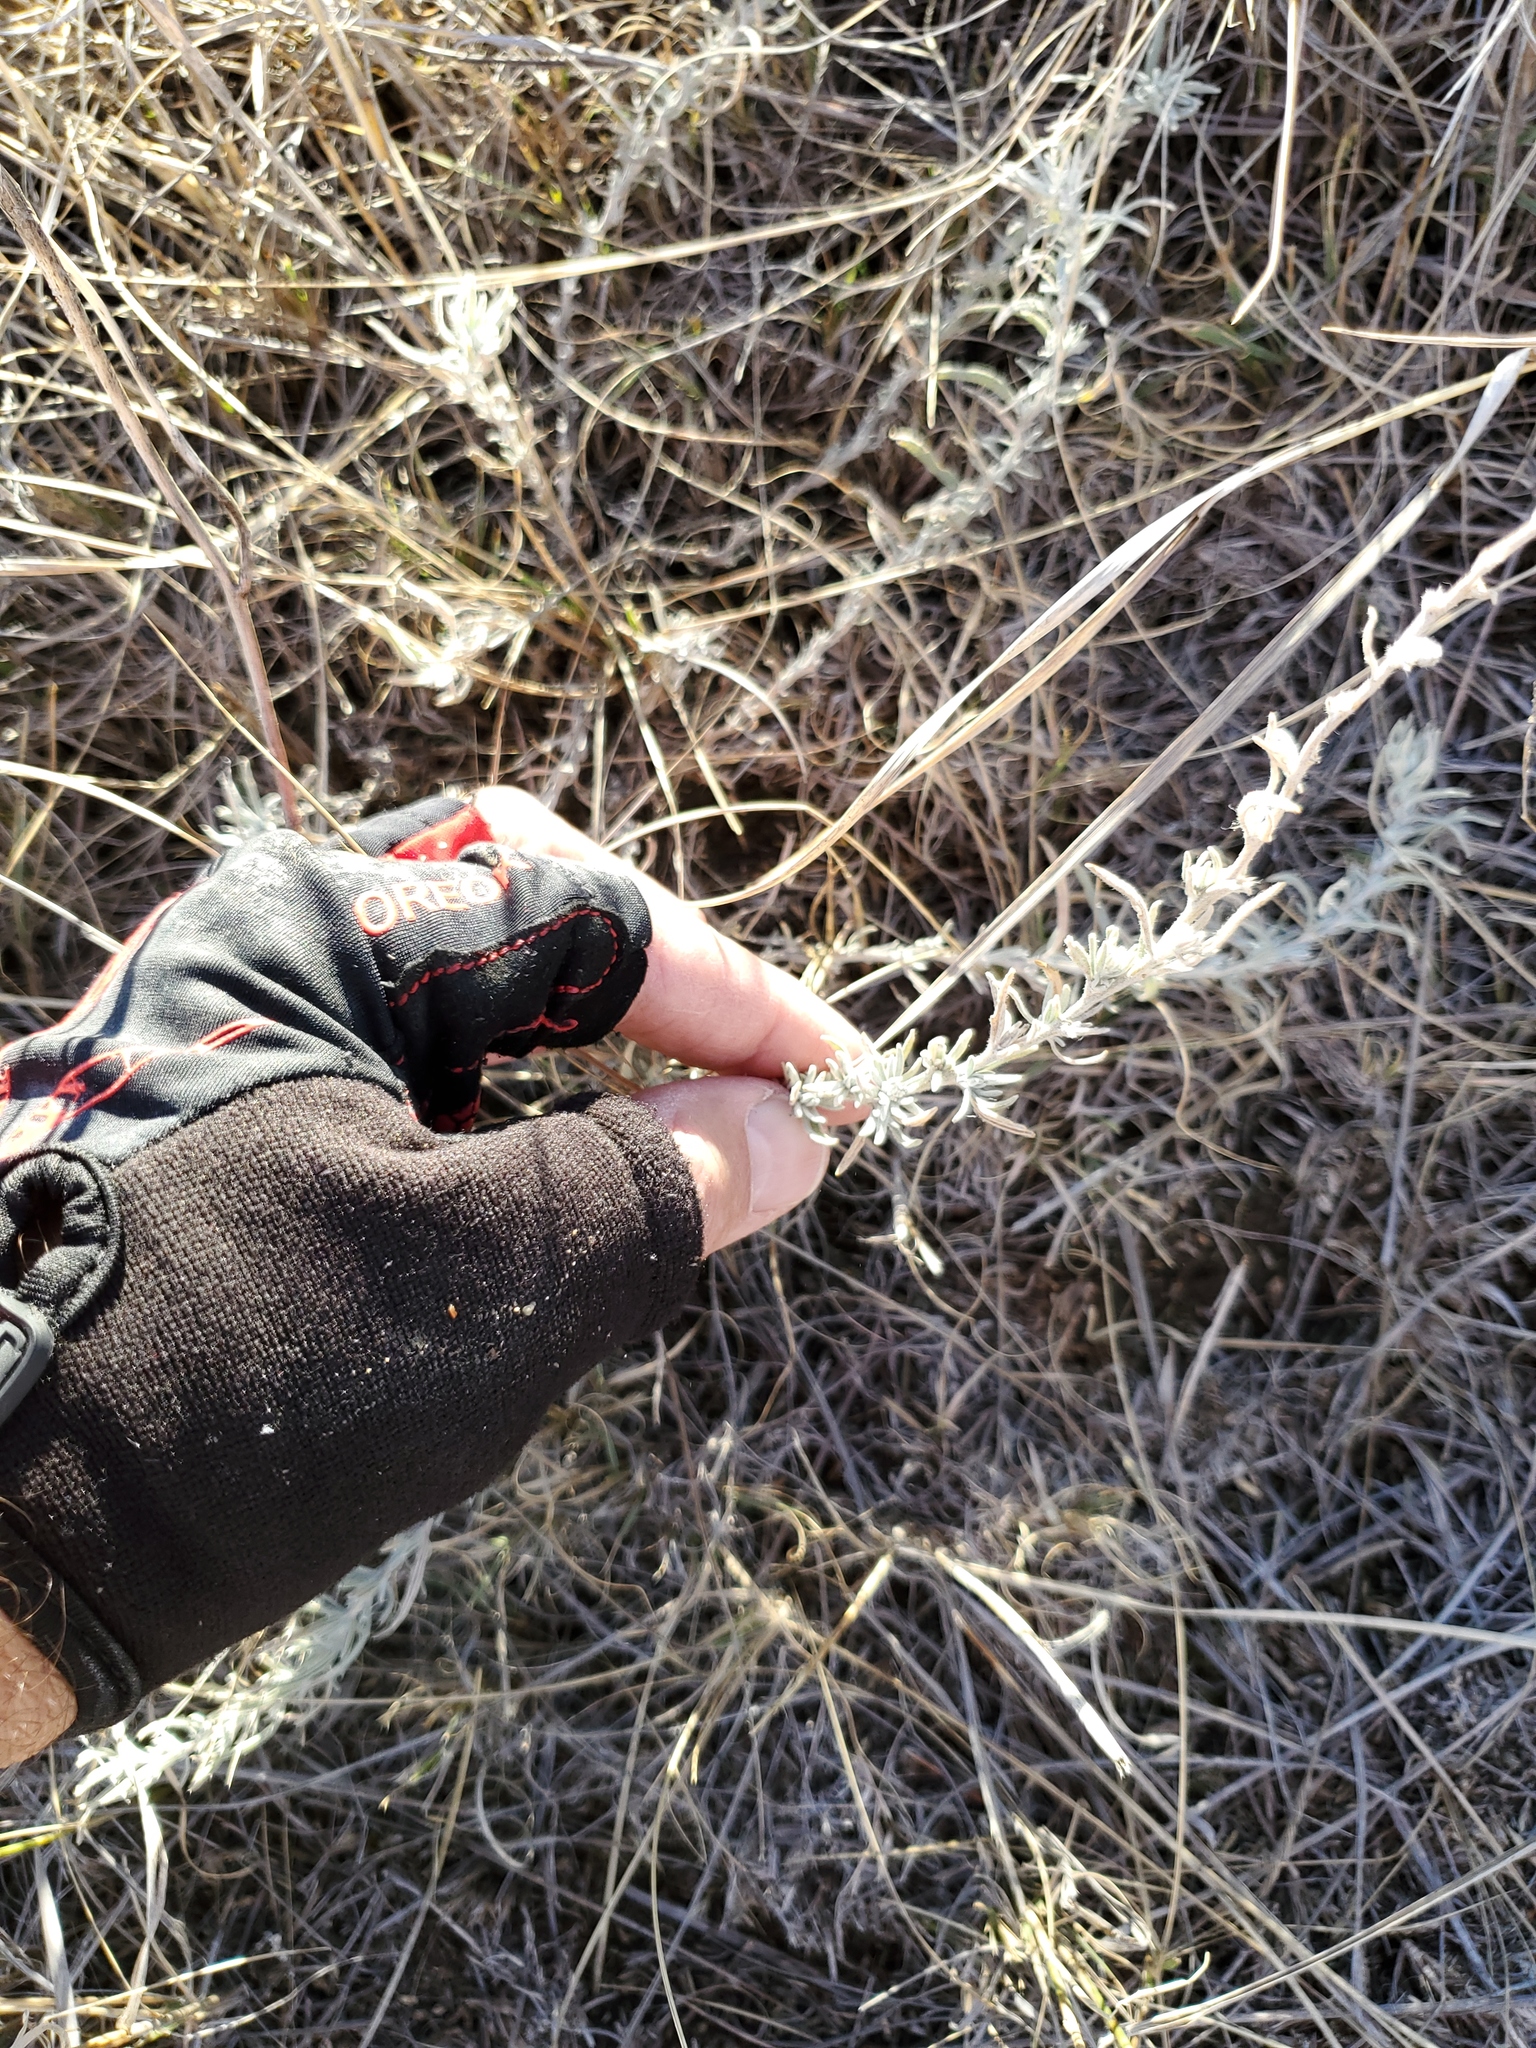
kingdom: Plantae
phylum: Tracheophyta
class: Magnoliopsida
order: Asterales
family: Asteraceae
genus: Artemisia
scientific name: Artemisia ludoviciana
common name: Western mugwort
